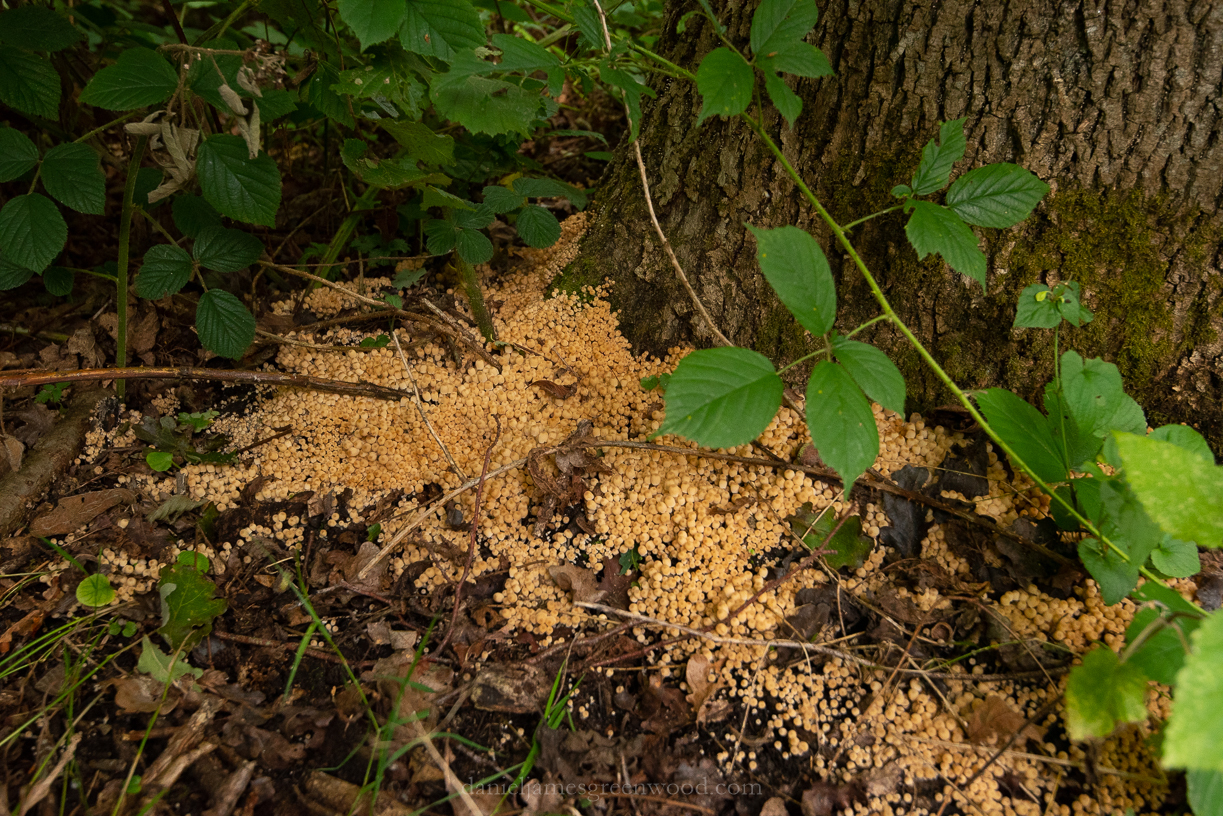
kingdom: Fungi
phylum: Basidiomycota
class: Agaricomycetes
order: Agaricales
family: Psathyrellaceae
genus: Coprinellus
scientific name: Coprinellus disseminatus
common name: Fairies' bonnets
